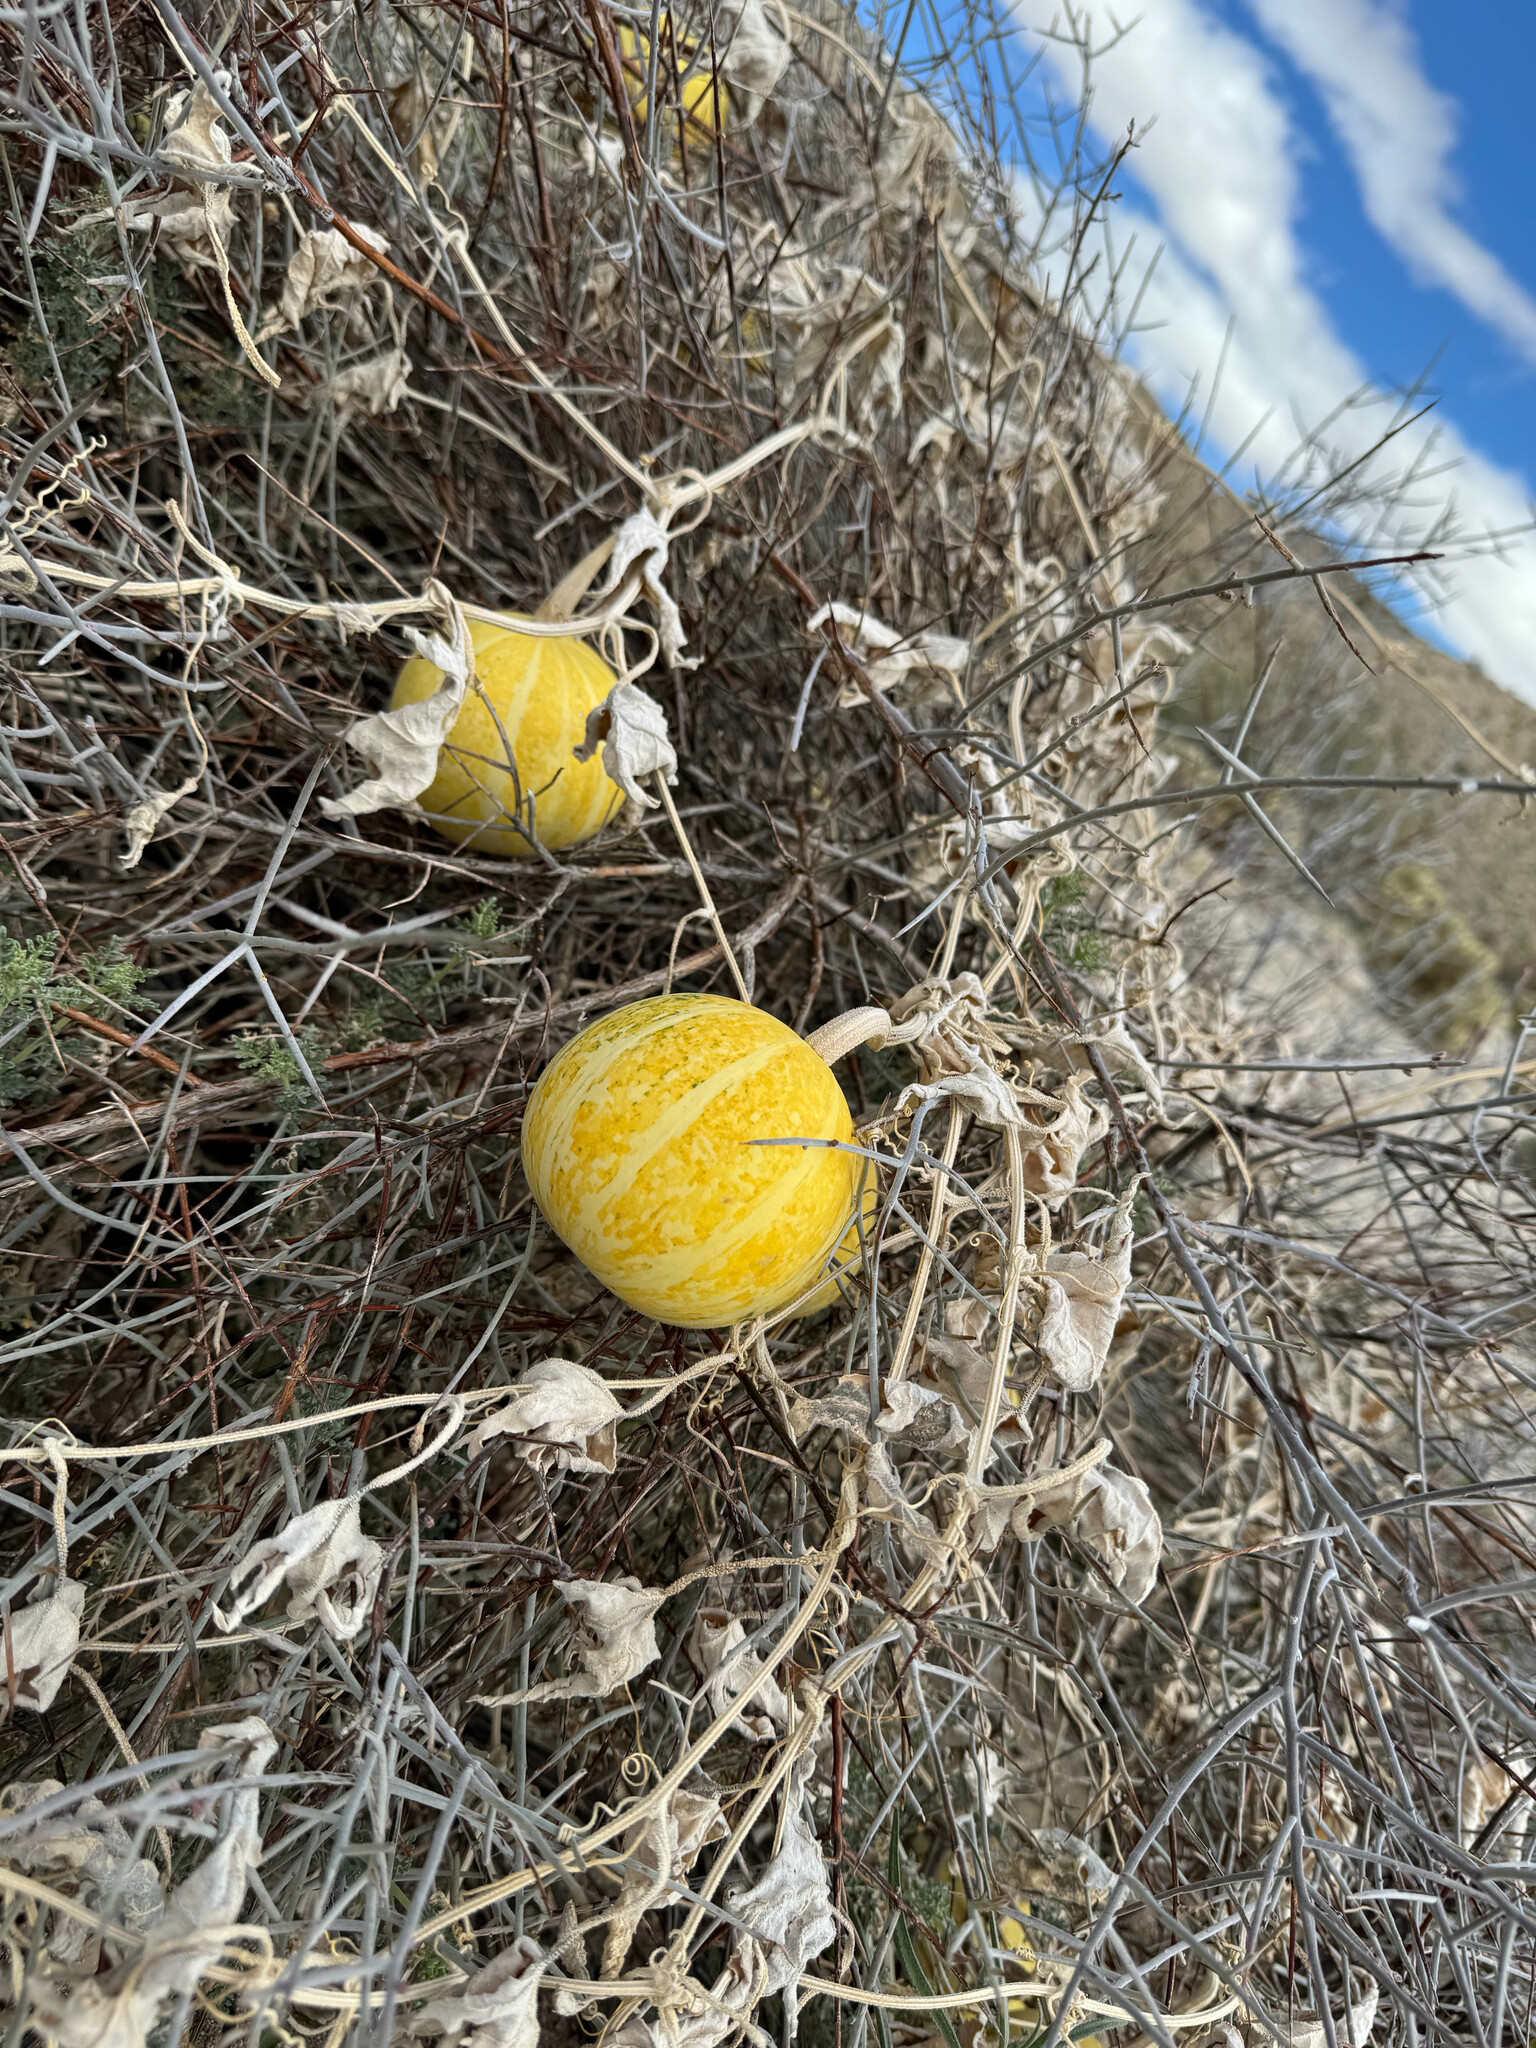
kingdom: Plantae
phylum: Tracheophyta
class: Magnoliopsida
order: Cucurbitales
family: Cucurbitaceae
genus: Cucurbita
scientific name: Cucurbita palmata
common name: Coyote-melon
